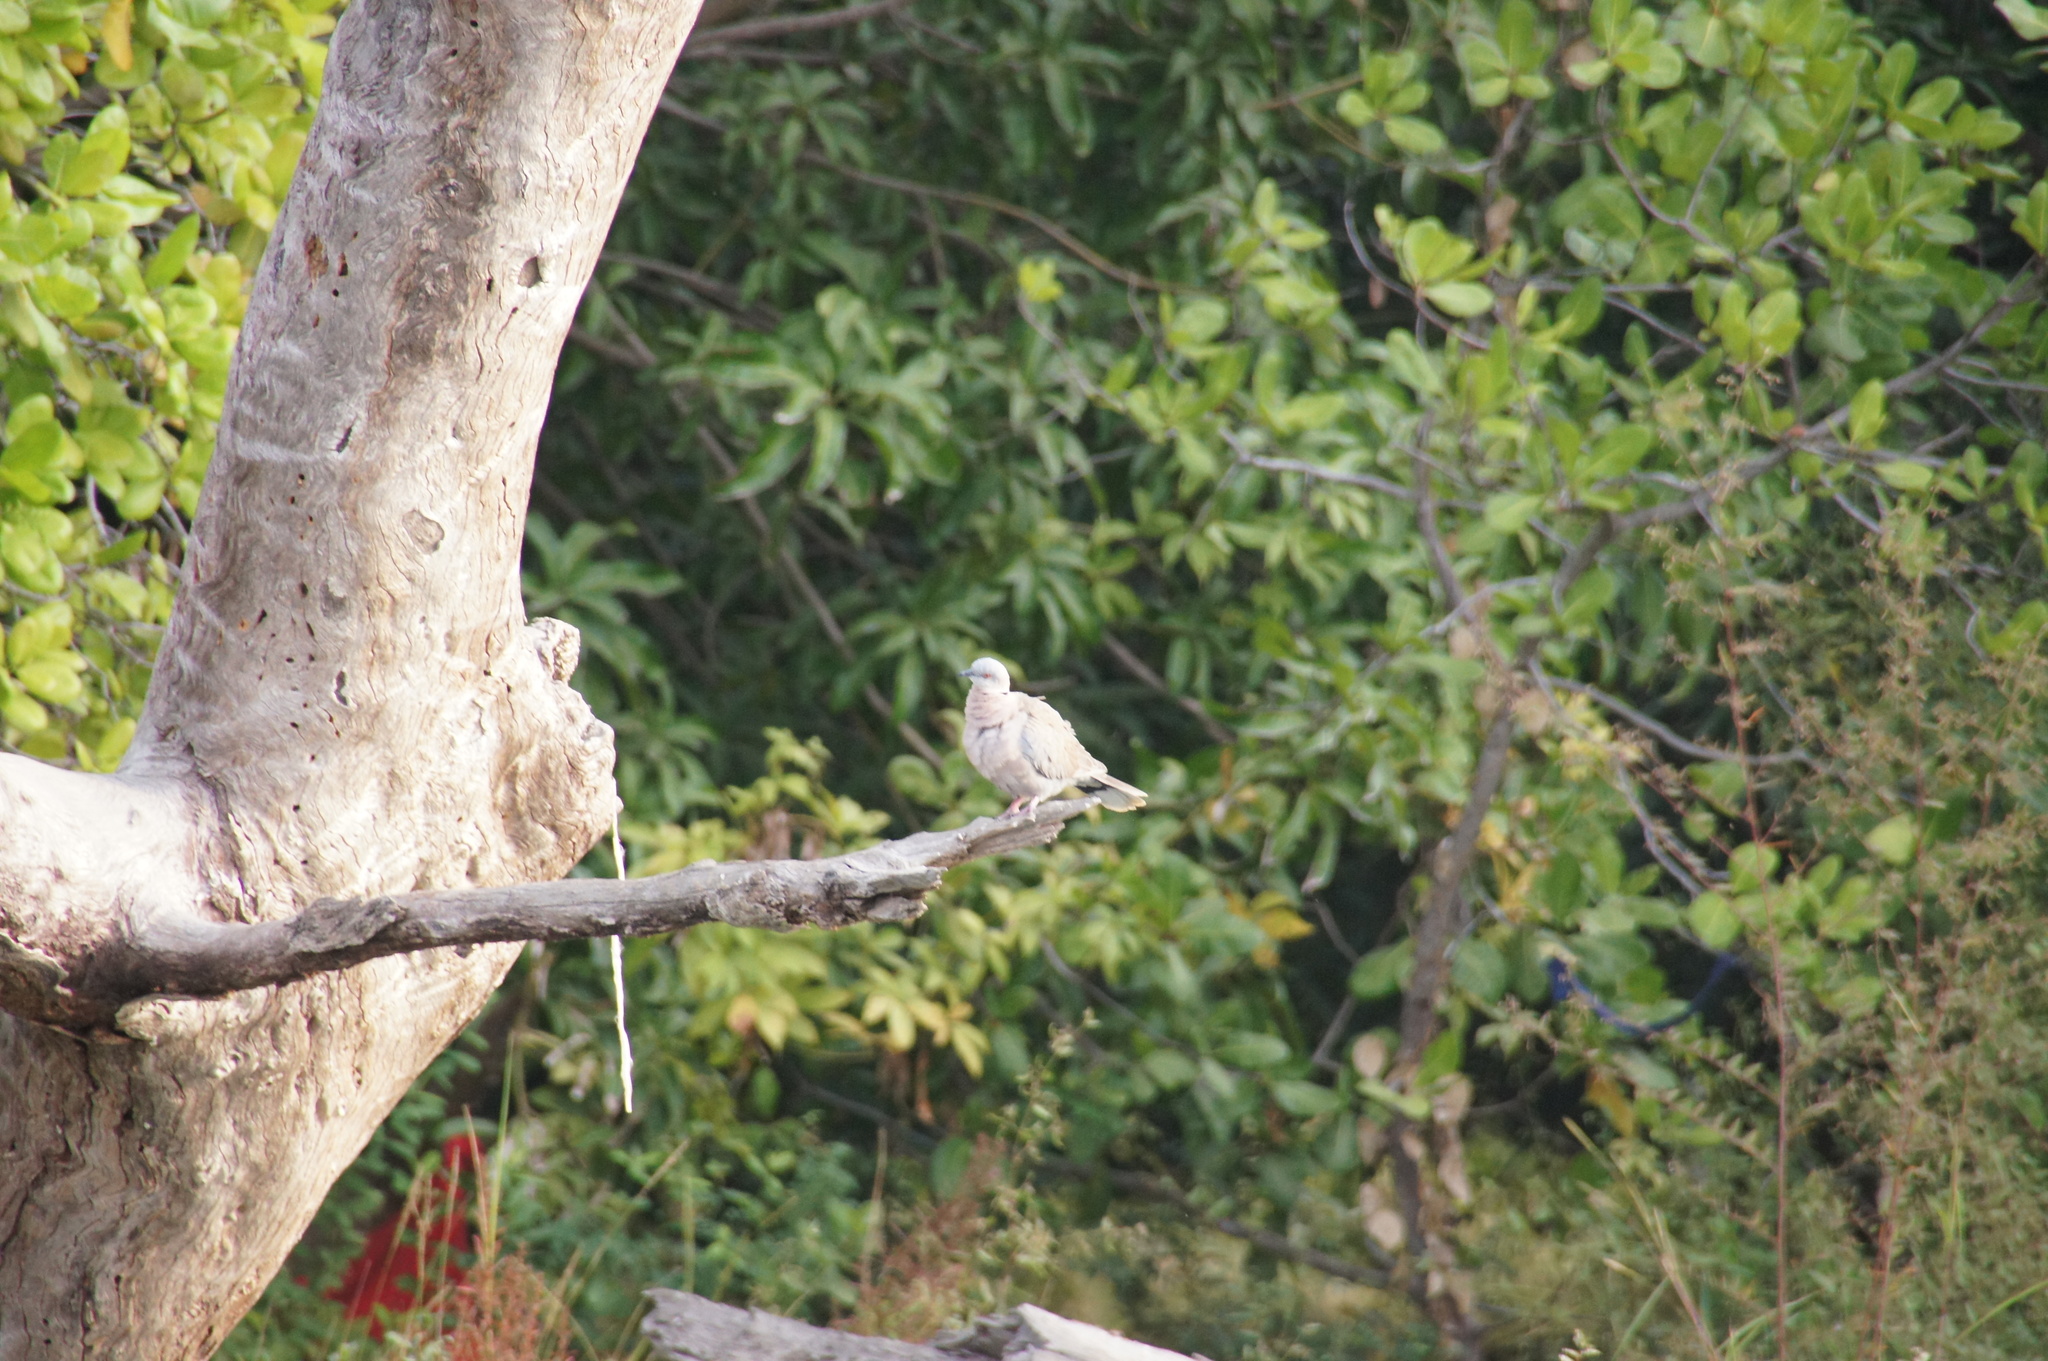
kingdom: Animalia
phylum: Chordata
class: Aves
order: Columbiformes
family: Columbidae
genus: Streptopelia
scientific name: Streptopelia decipiens
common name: Mourning collared dove
